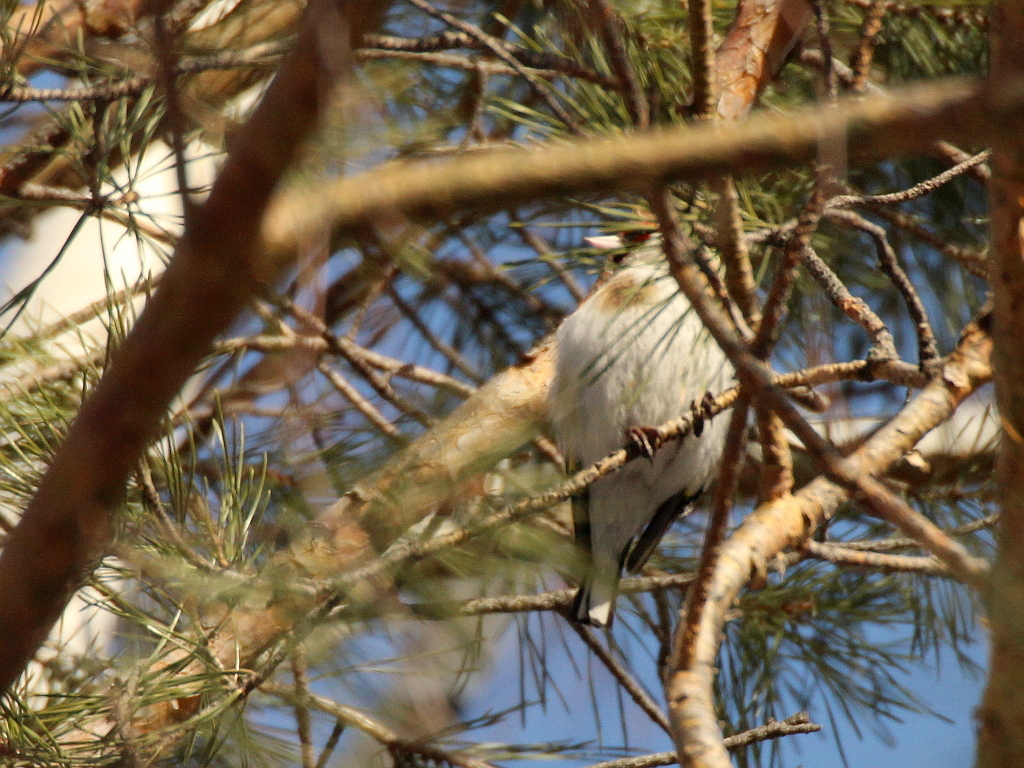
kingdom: Animalia
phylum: Chordata
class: Aves
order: Passeriformes
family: Fringillidae
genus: Carduelis
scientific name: Carduelis carduelis
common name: European goldfinch
